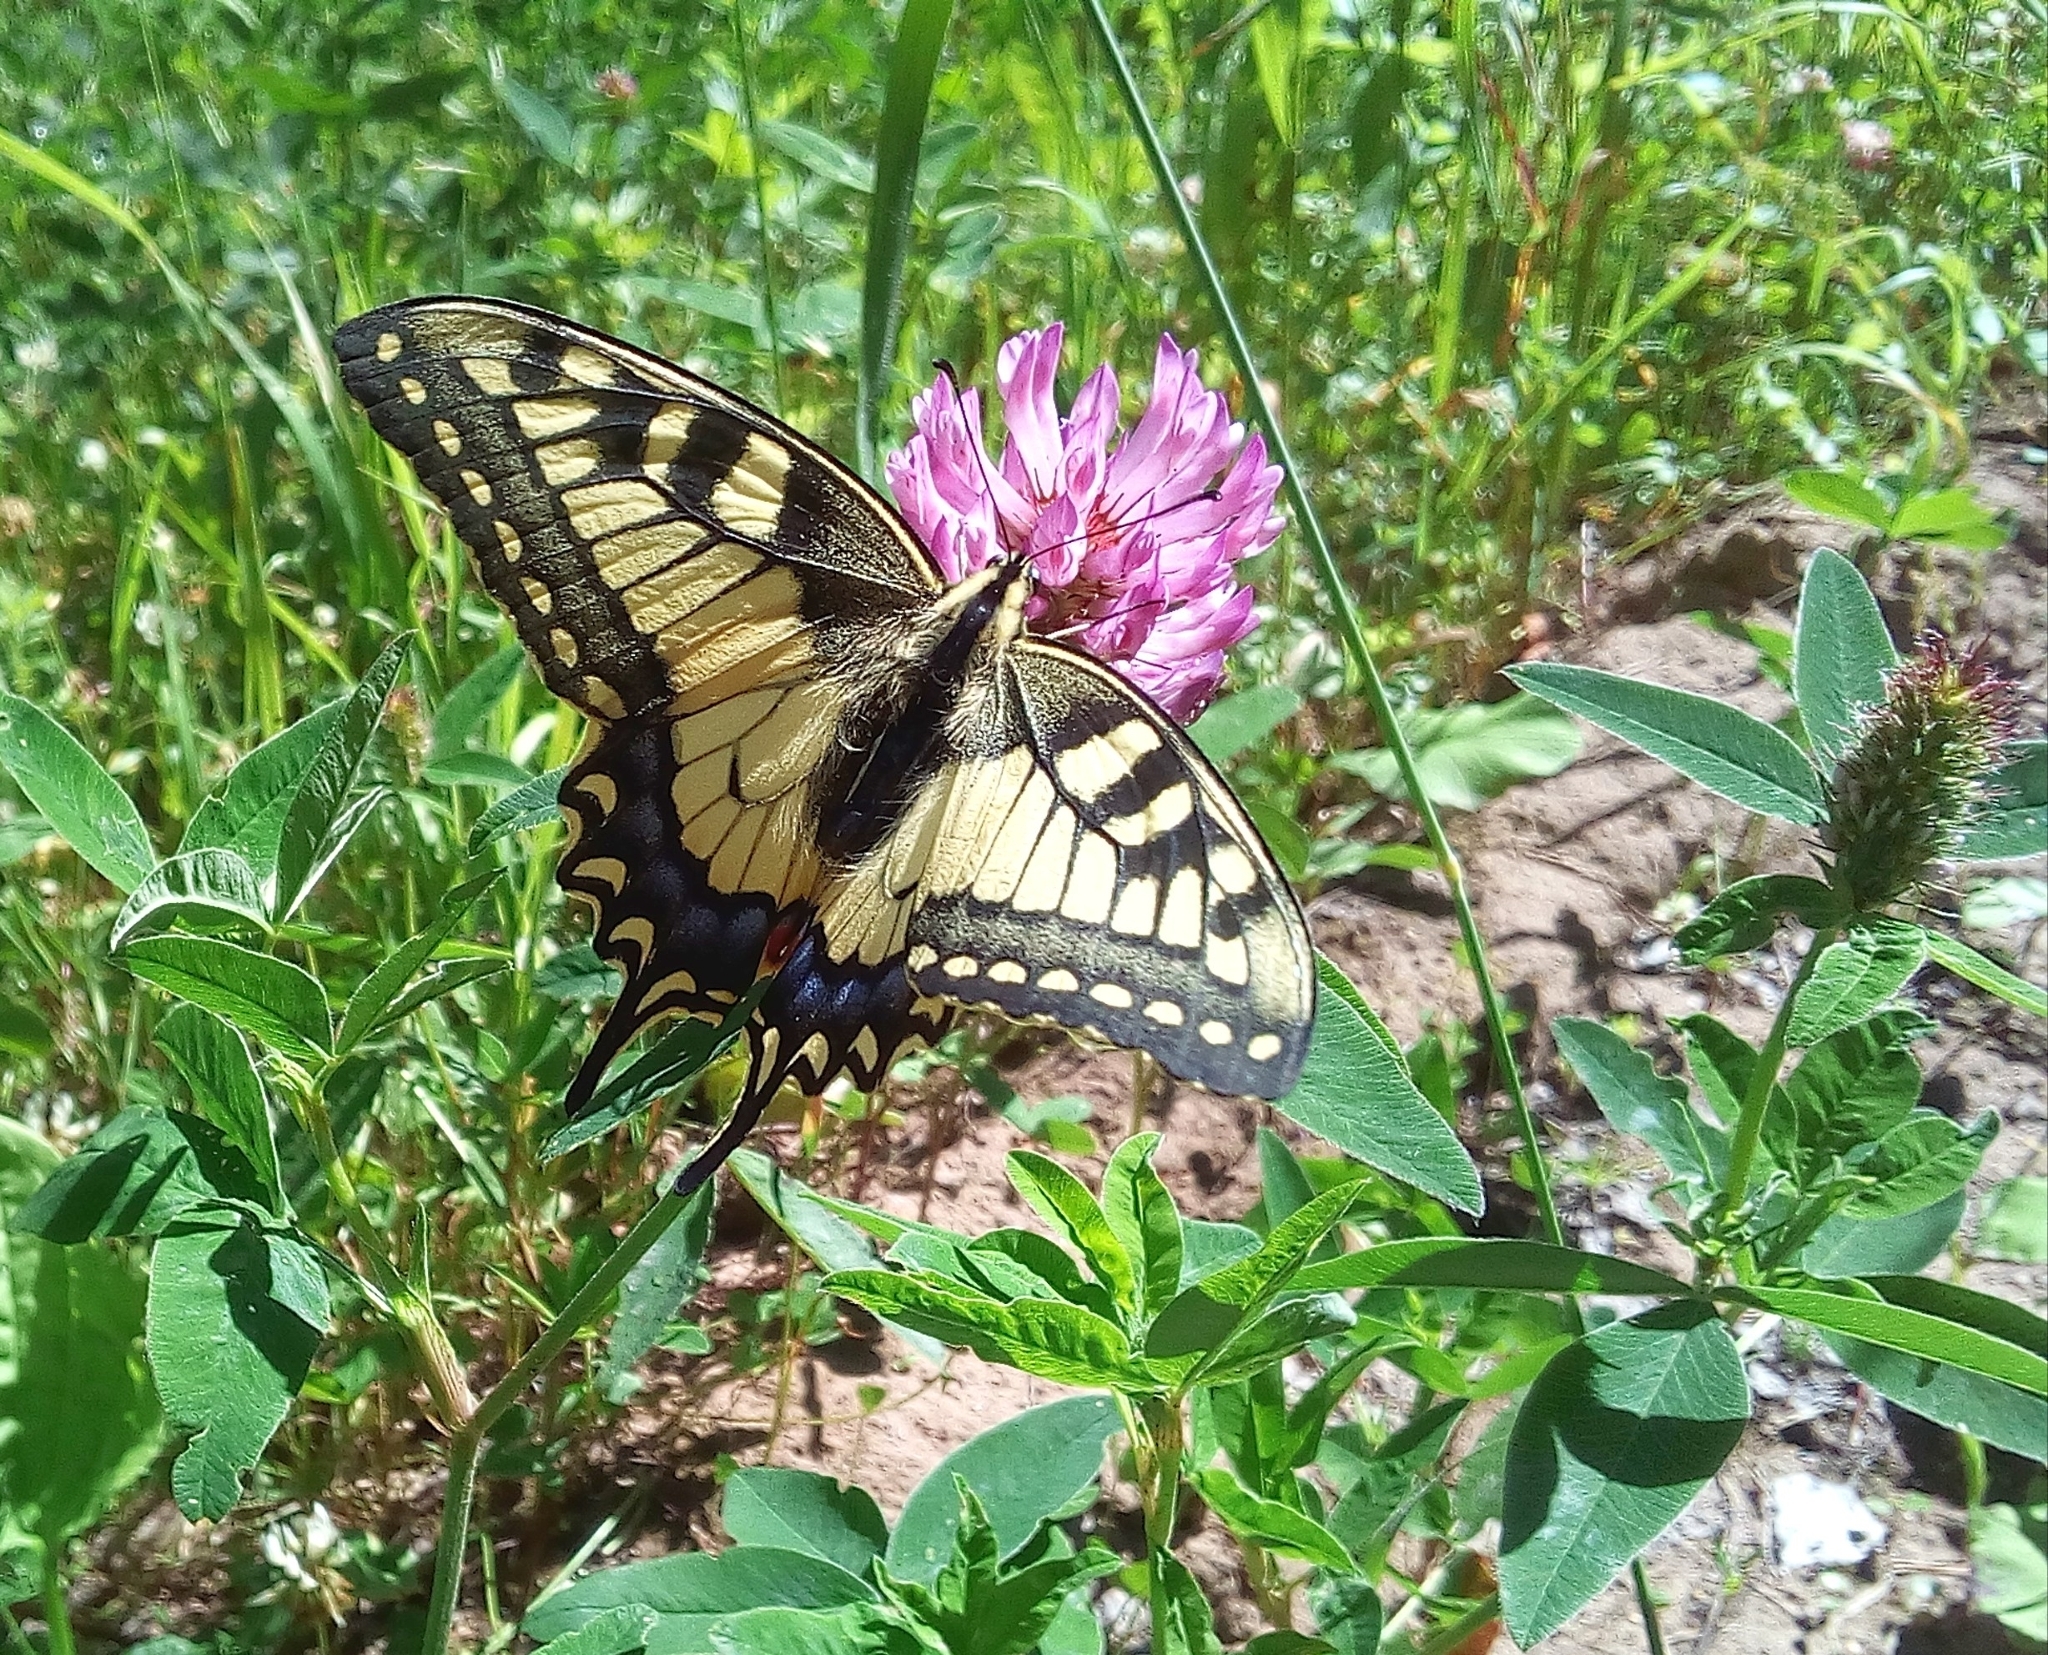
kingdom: Animalia
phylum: Arthropoda
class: Insecta
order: Lepidoptera
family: Papilionidae
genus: Papilio
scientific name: Papilio machaon
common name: Swallowtail
